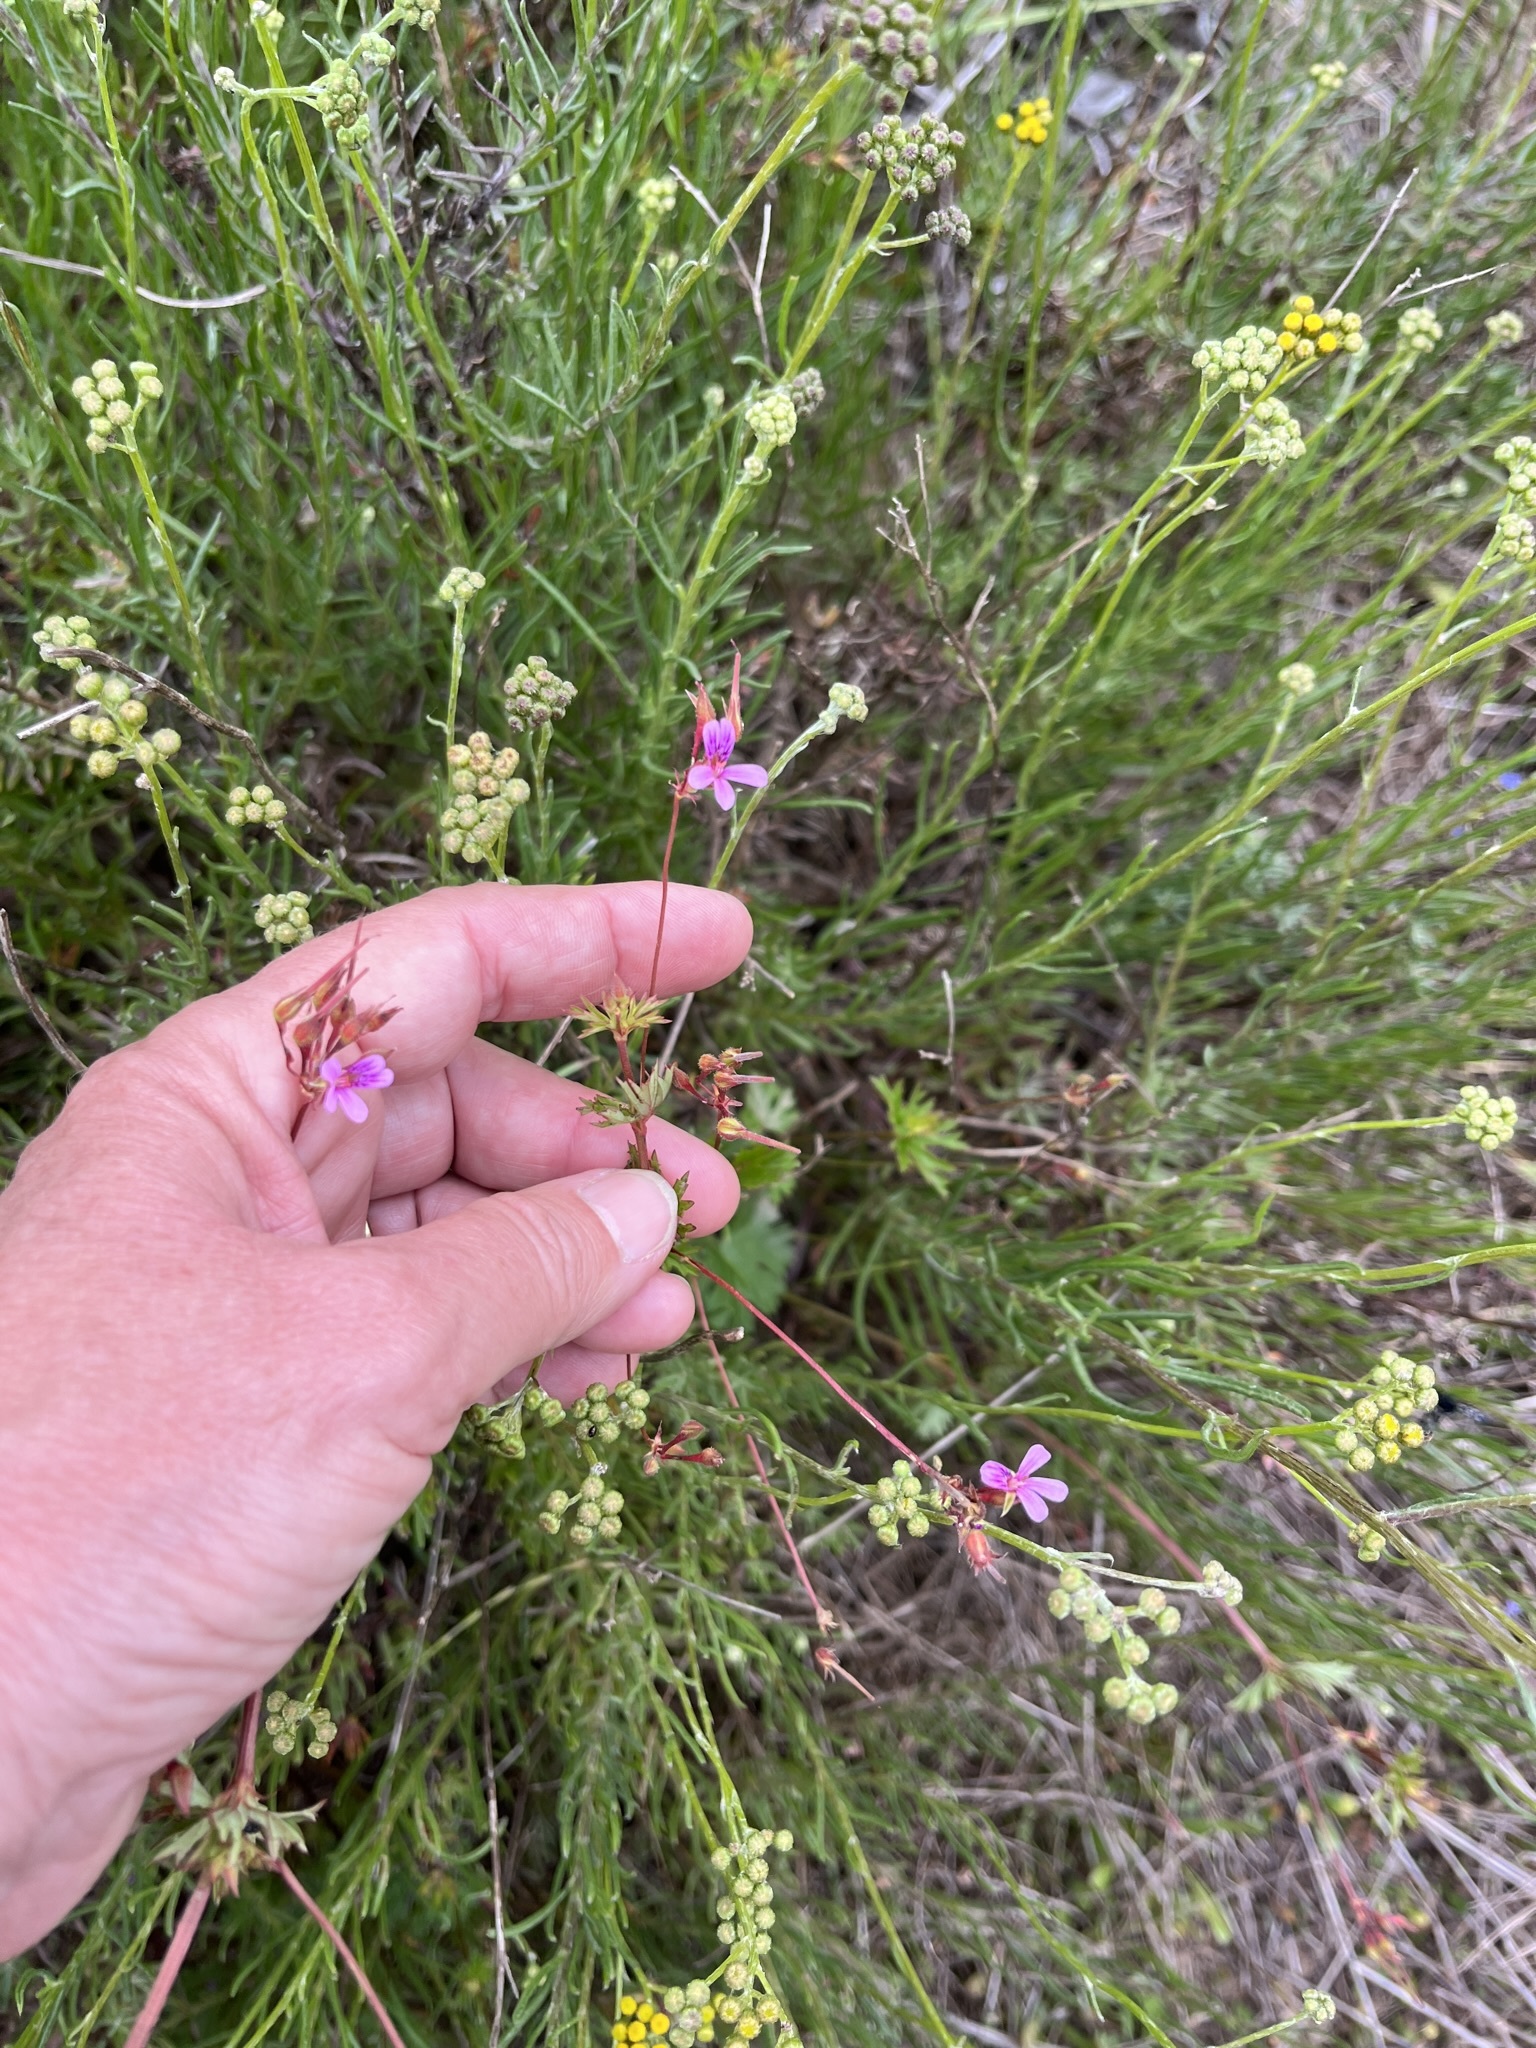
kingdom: Plantae
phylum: Tracheophyta
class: Magnoliopsida
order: Geraniales
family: Geraniaceae
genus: Pelargonium
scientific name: Pelargonium grossularioides
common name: Gooseberry geranium
